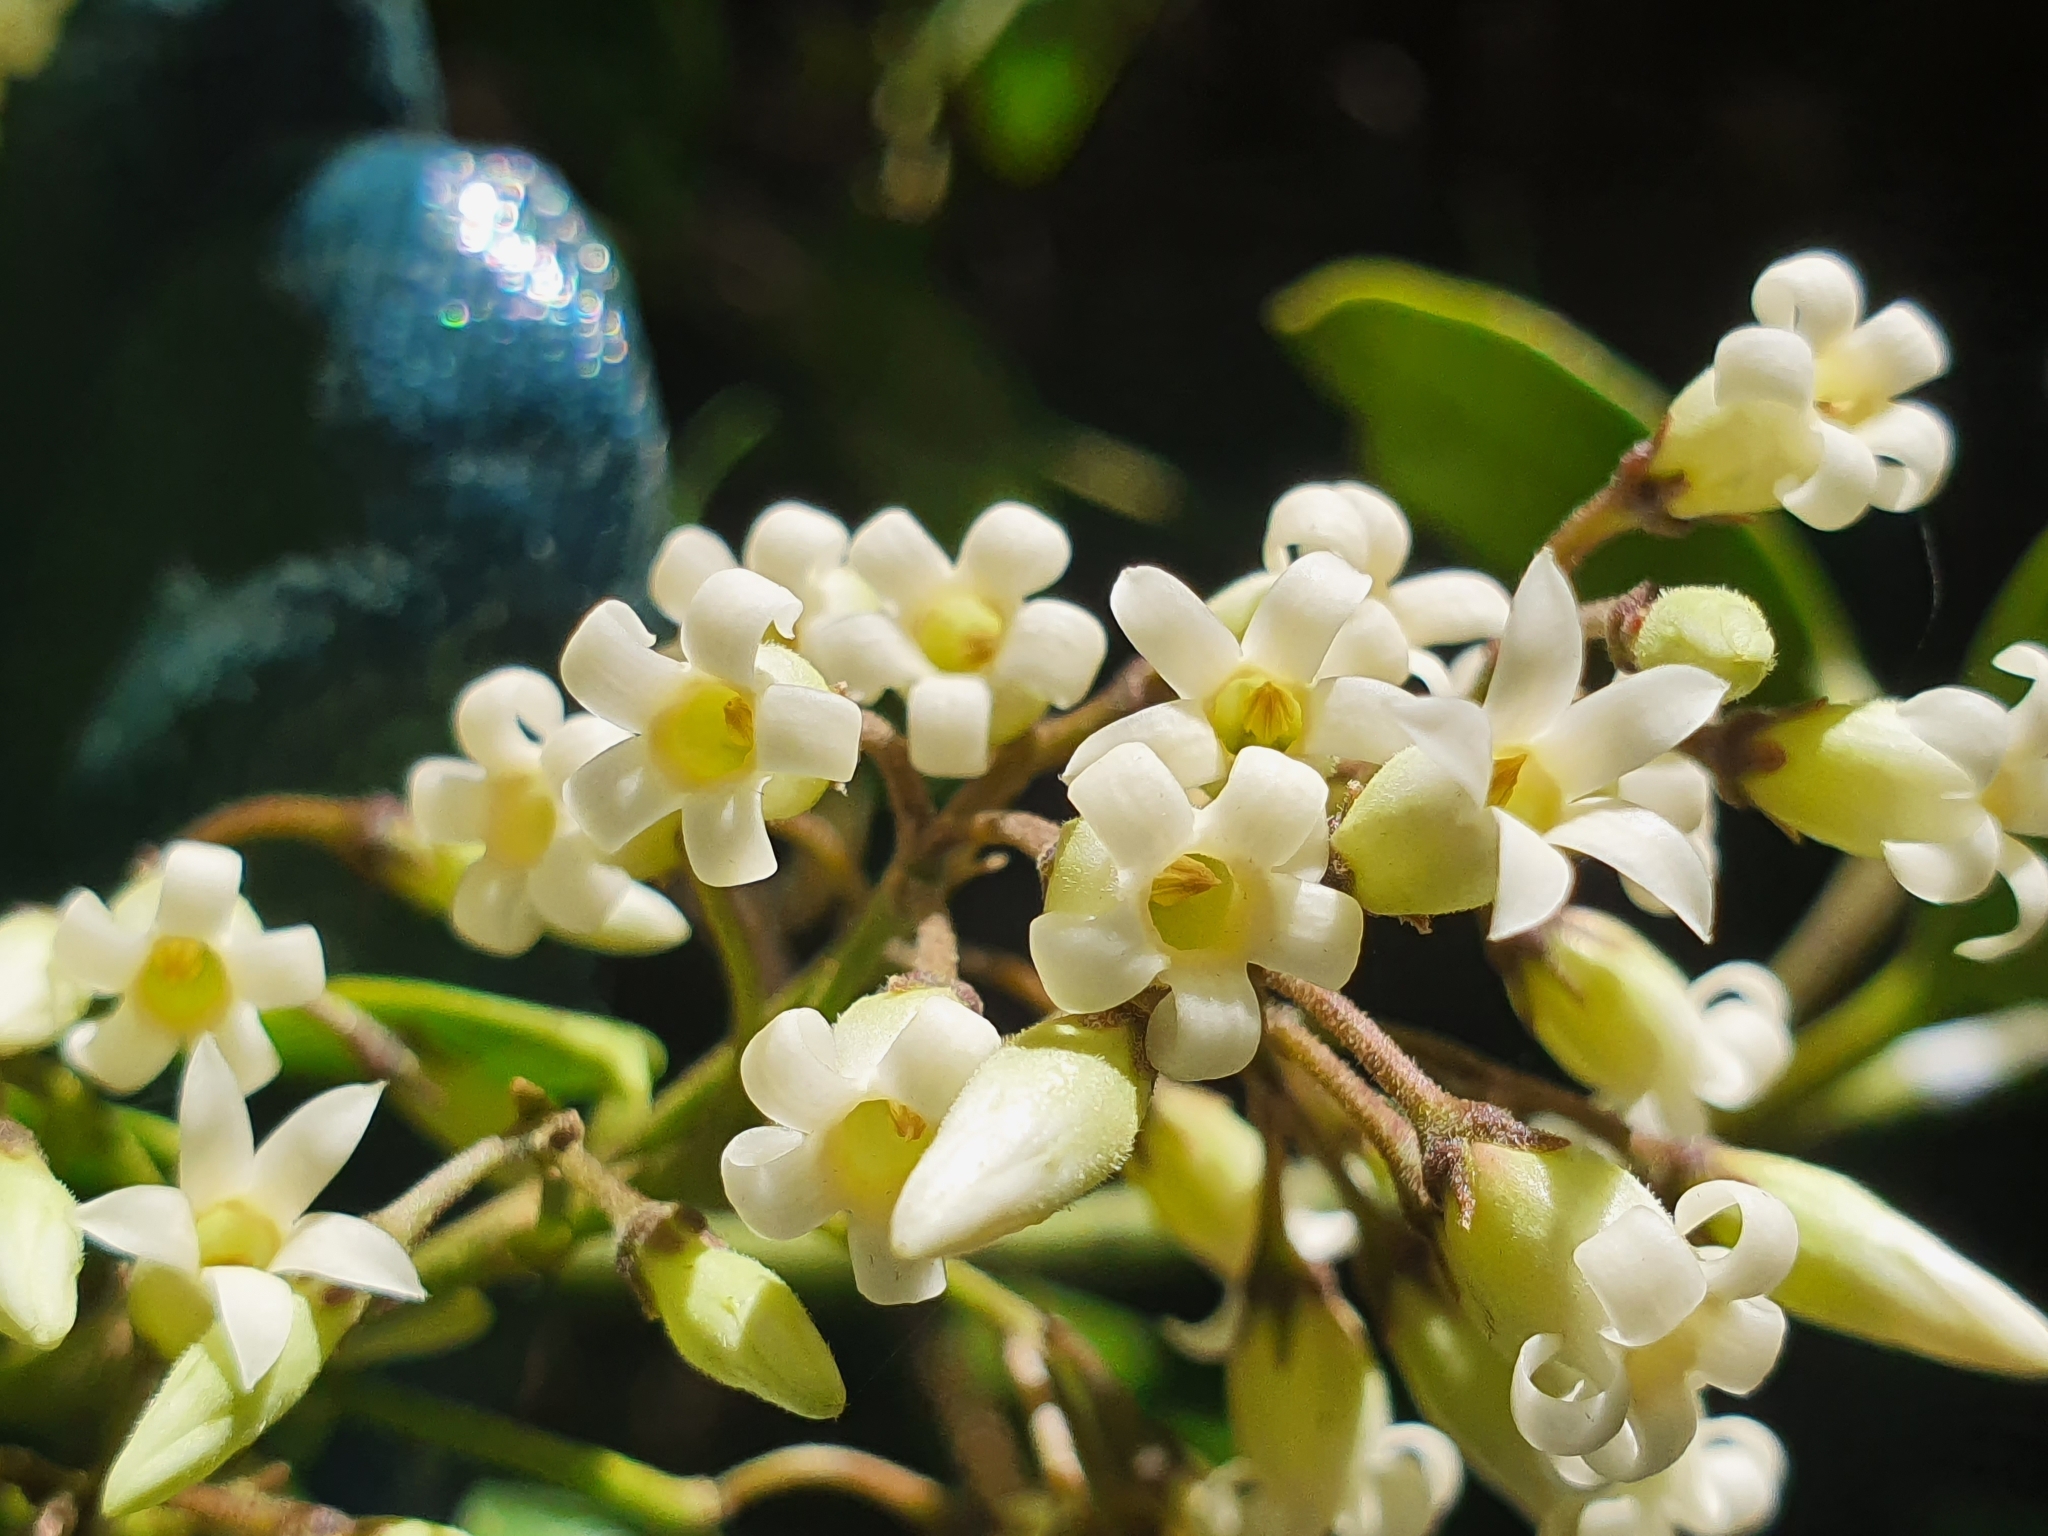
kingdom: Plantae
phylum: Tracheophyta
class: Magnoliopsida
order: Gentianales
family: Apocynaceae
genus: Parsonsia
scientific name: Parsonsia heterophylla
